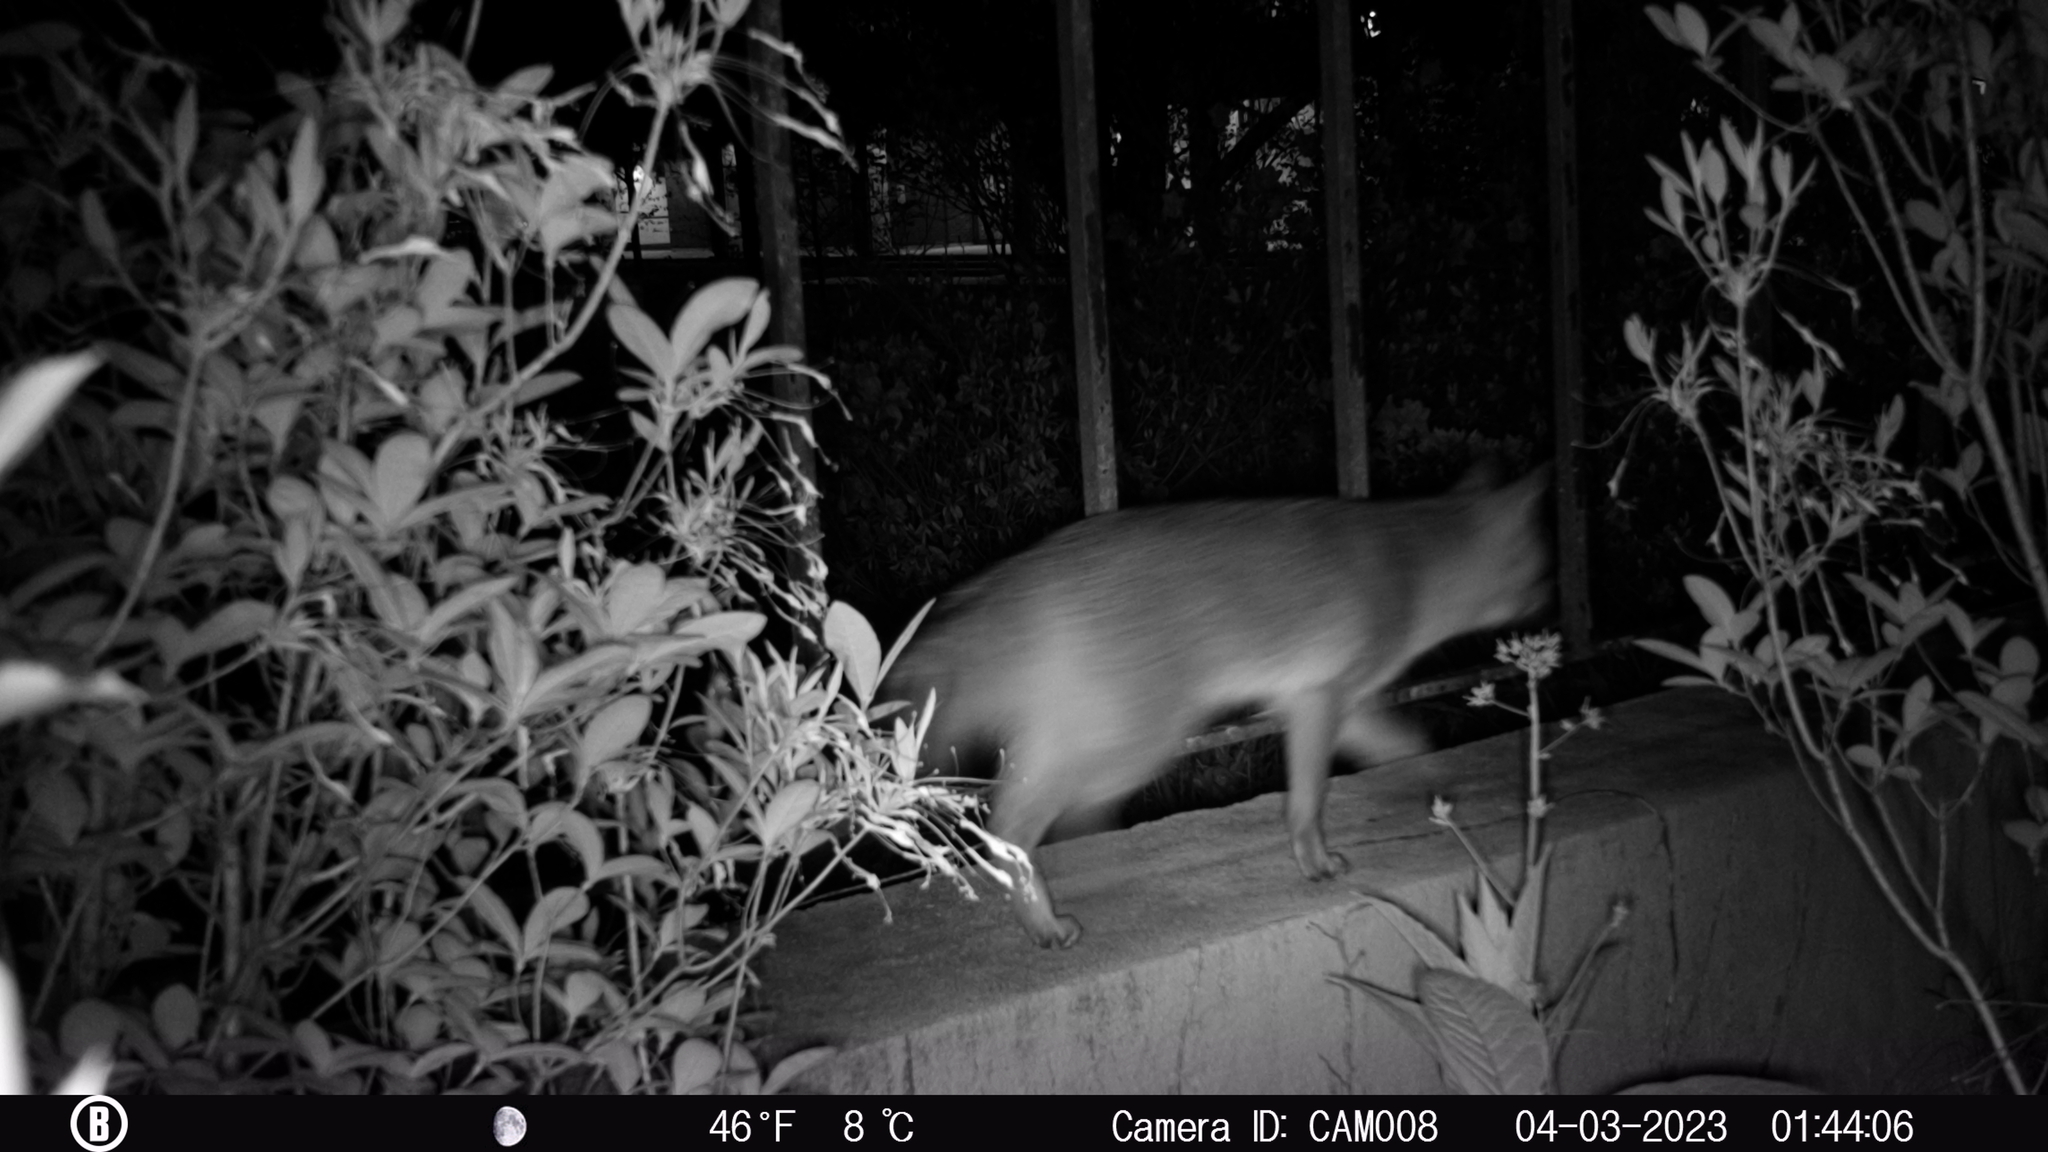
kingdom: Animalia
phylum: Chordata
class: Mammalia
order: Carnivora
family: Canidae
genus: Urocyon
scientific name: Urocyon cinereoargenteus
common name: Gray fox
